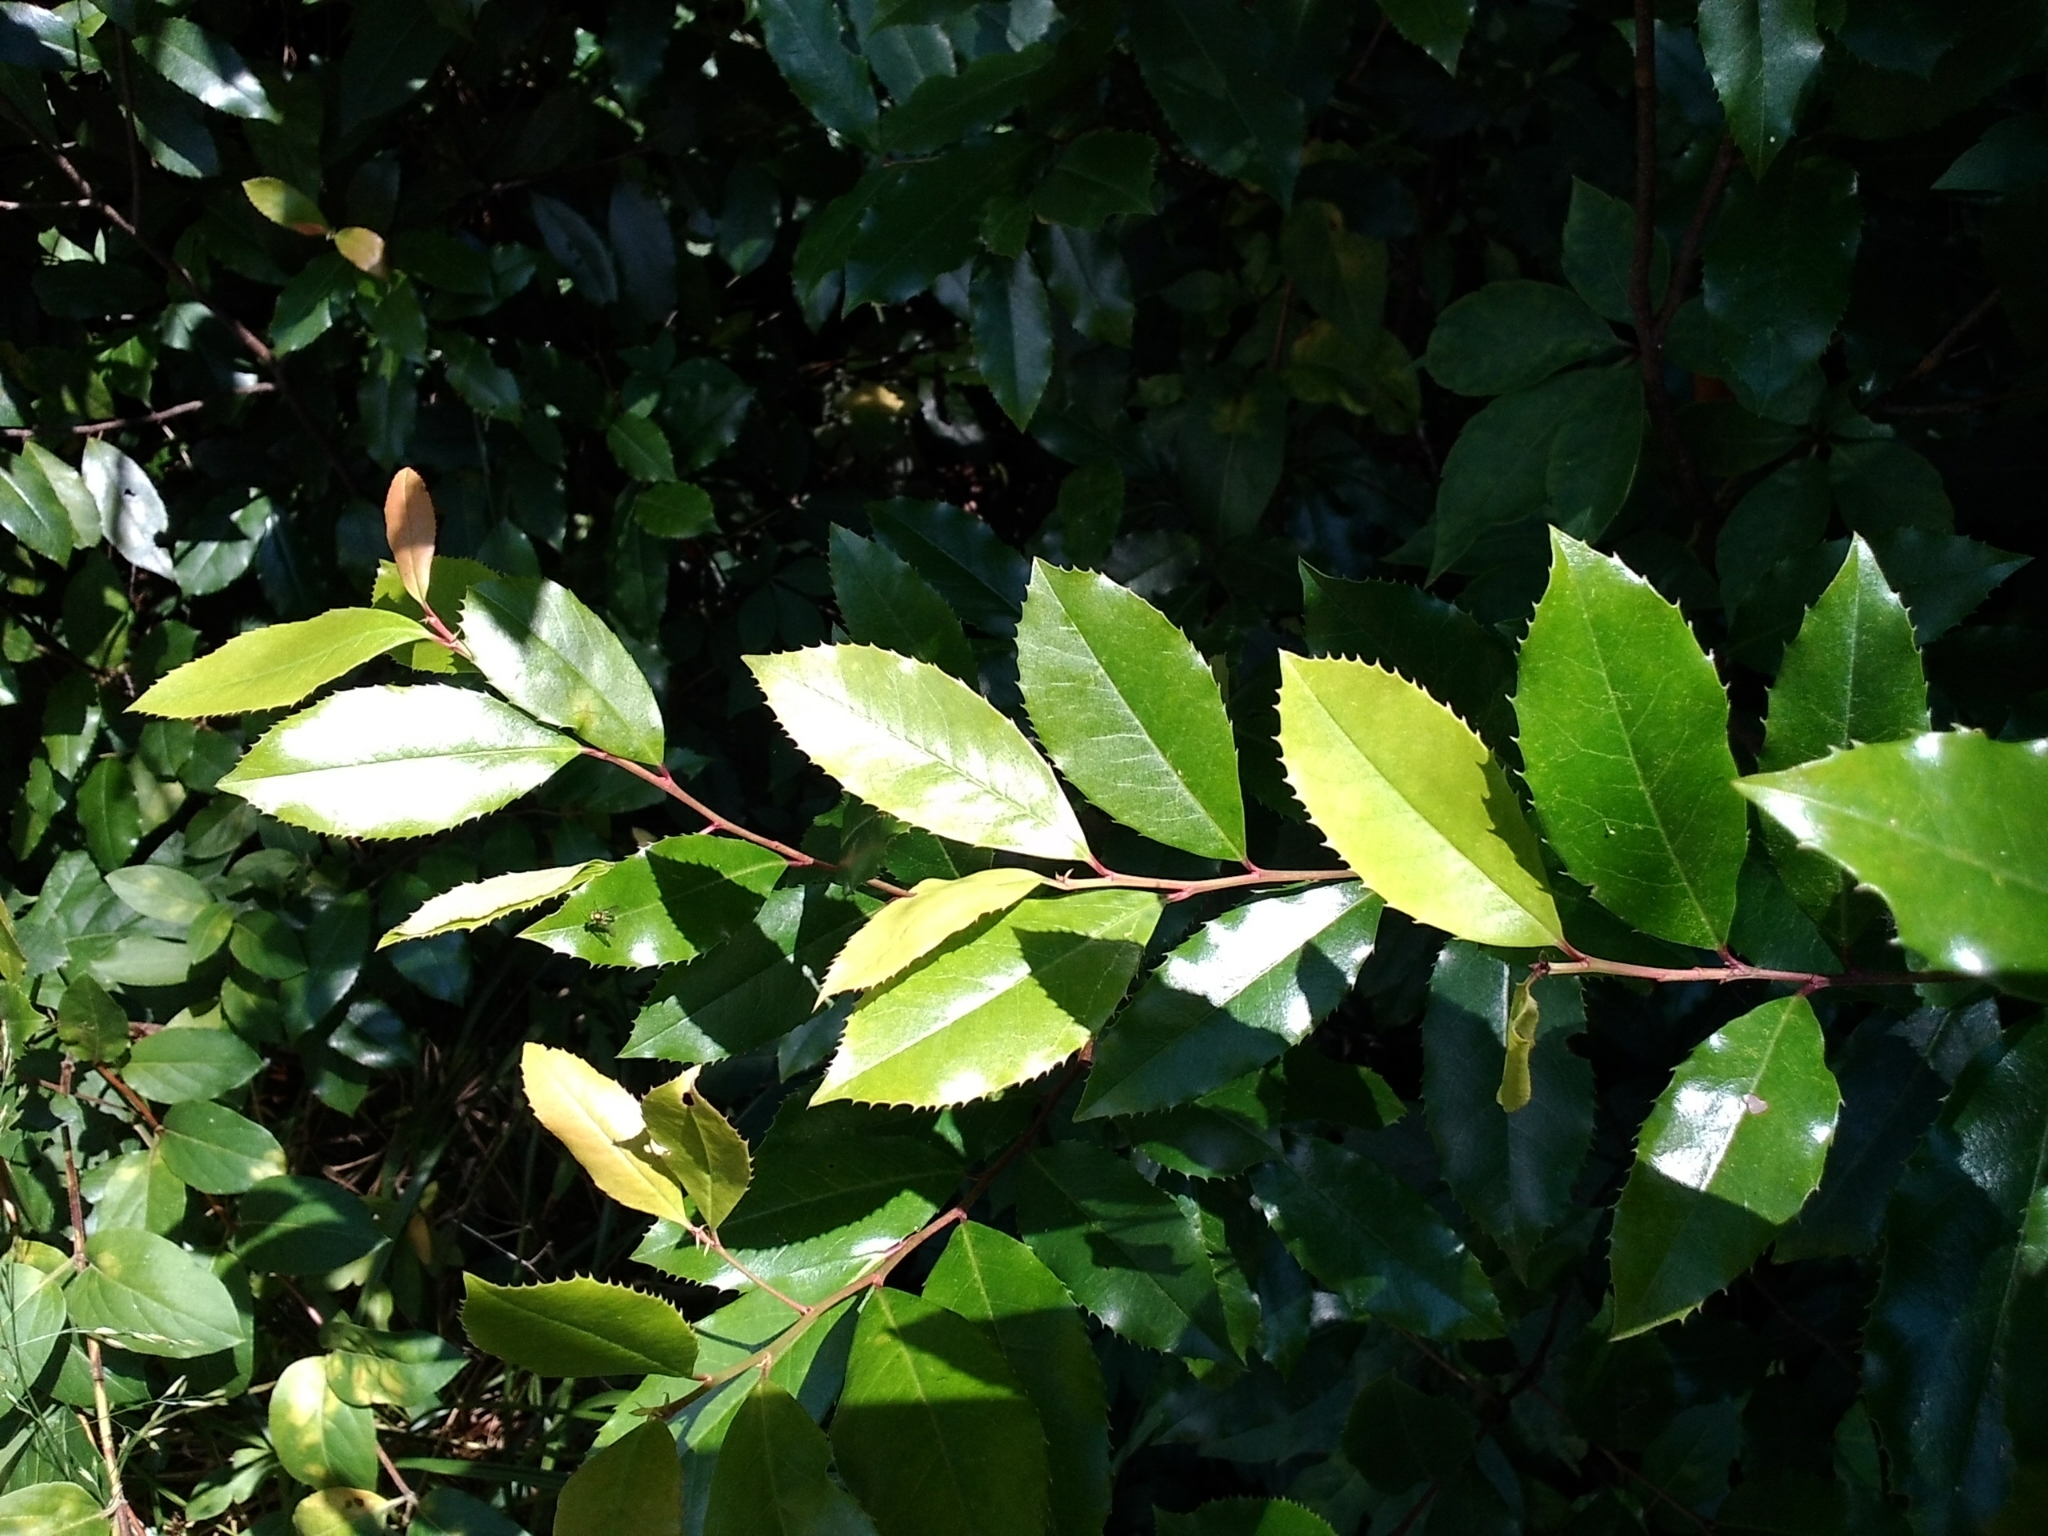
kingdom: Plantae
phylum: Tracheophyta
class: Magnoliopsida
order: Rosales
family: Rosaceae
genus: Prunus
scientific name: Prunus caroliniana
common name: Carolina laurel cherry
